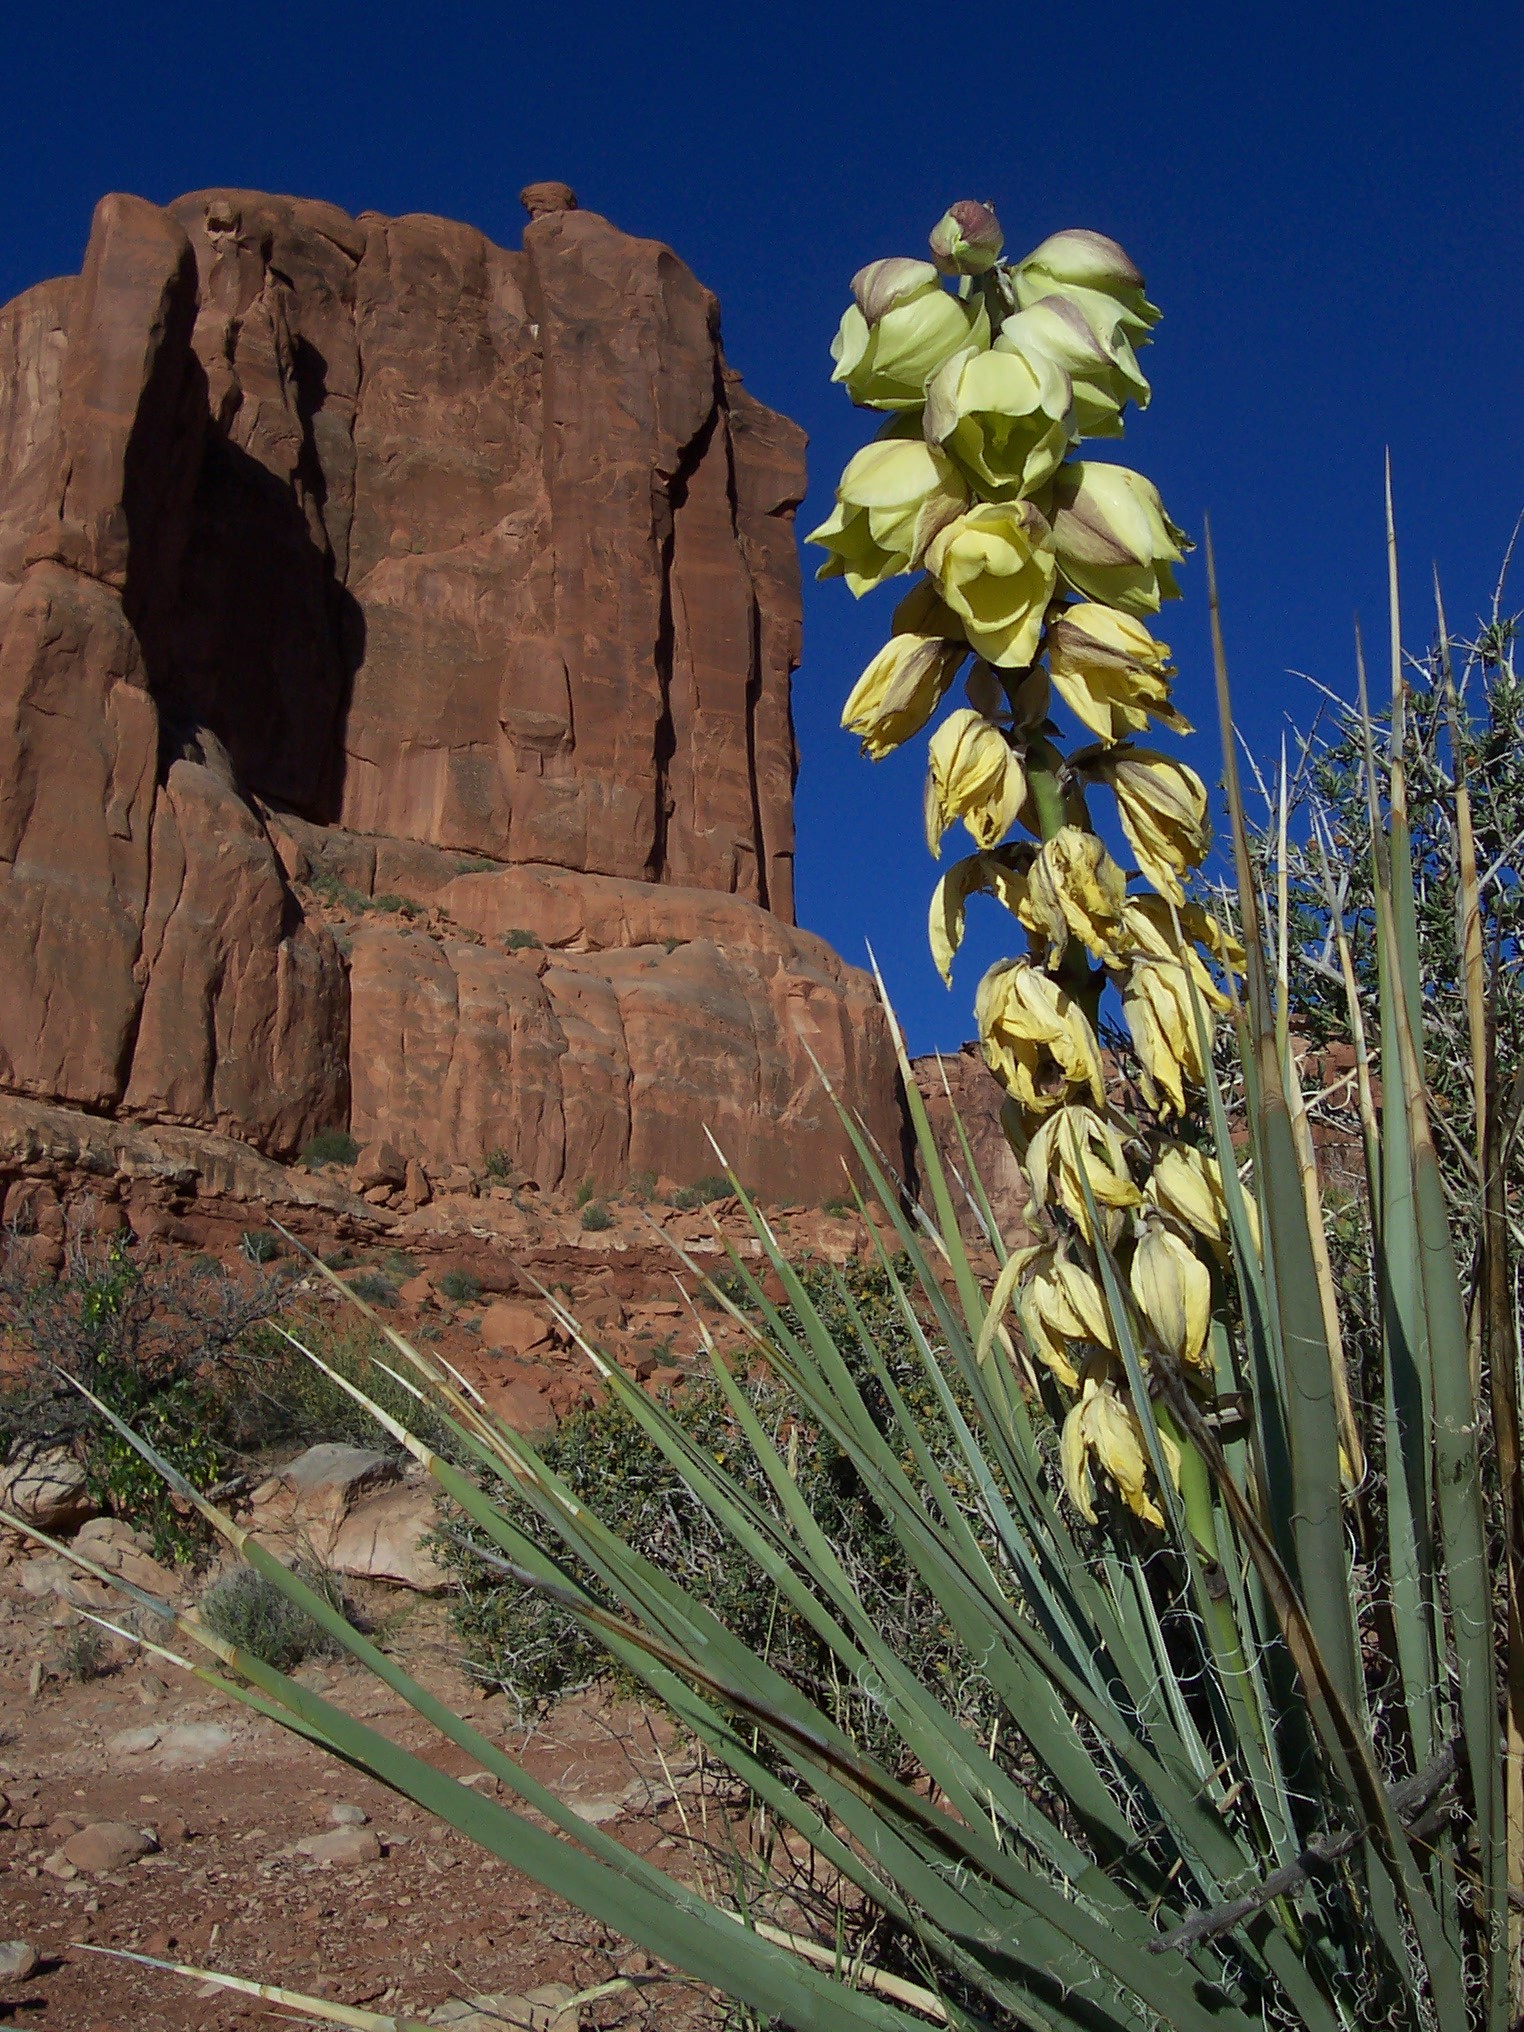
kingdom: Plantae
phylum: Tracheophyta
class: Liliopsida
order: Asparagales
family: Asparagaceae
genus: Yucca
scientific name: Yucca angustissima
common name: Narrowleaf yucca
